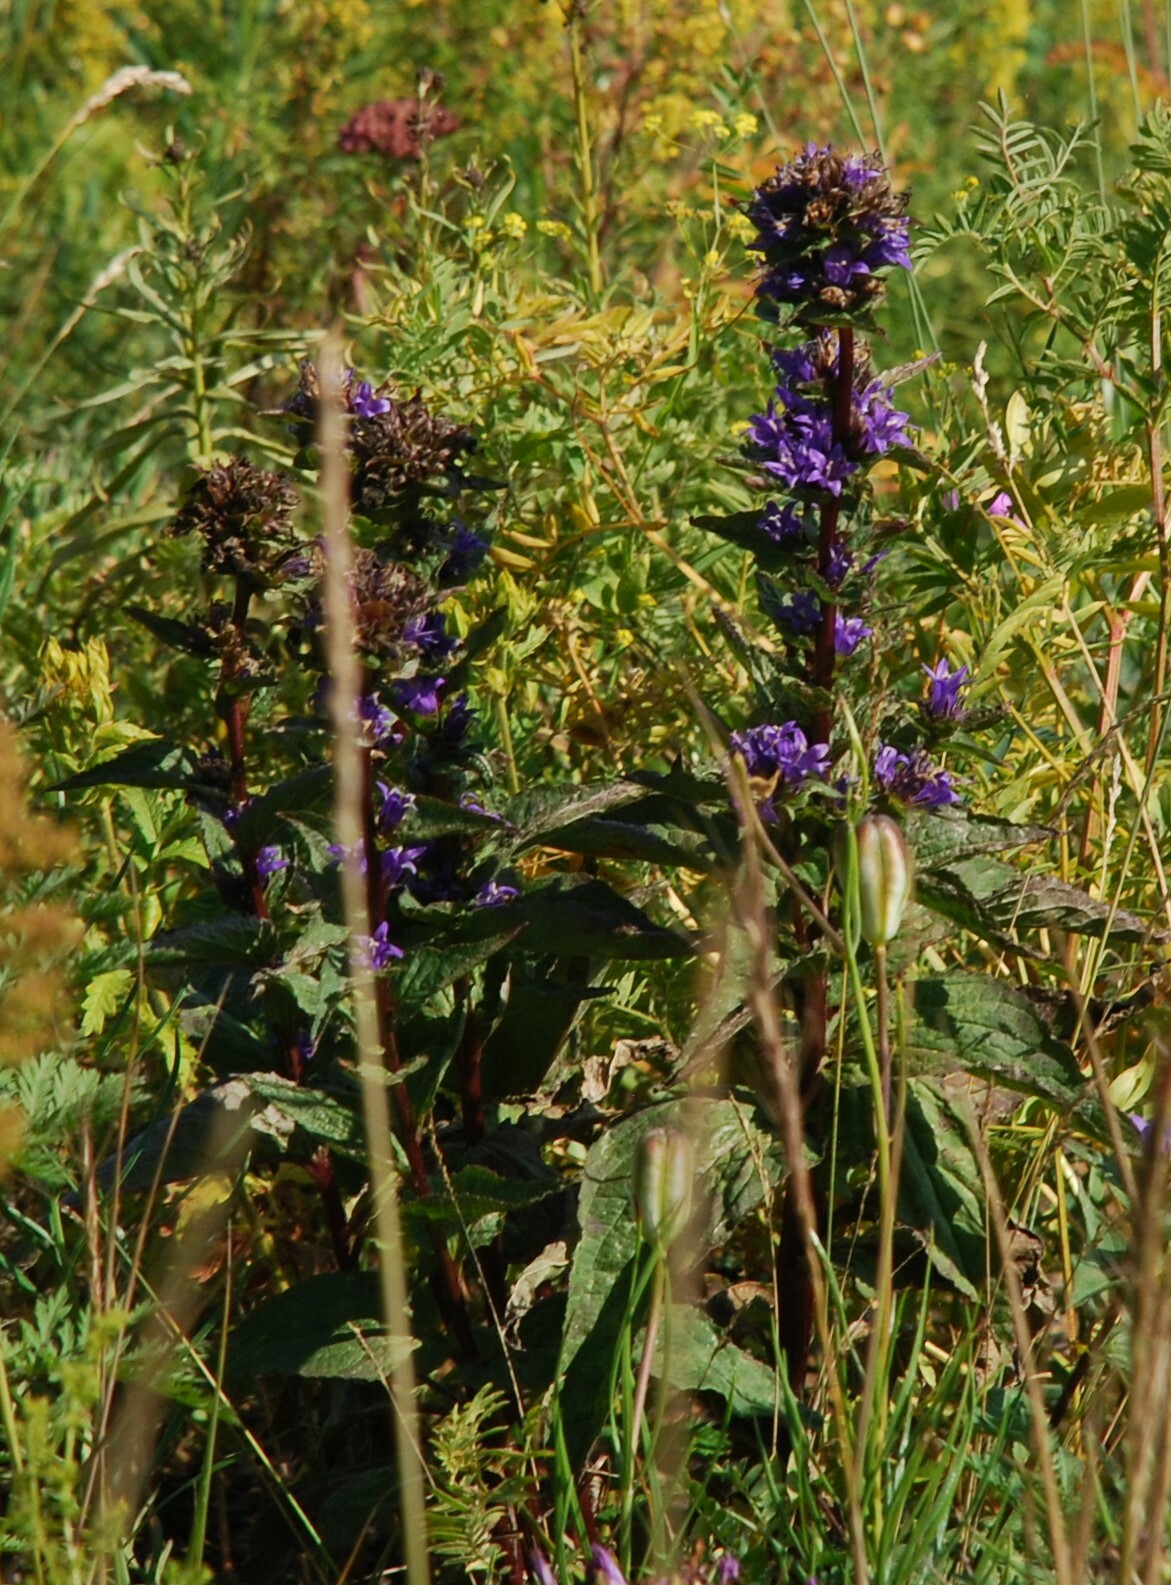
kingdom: Plantae
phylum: Tracheophyta
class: Magnoliopsida
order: Asterales
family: Campanulaceae
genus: Campanula
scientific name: Campanula glomerata
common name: Clustered bellflower
